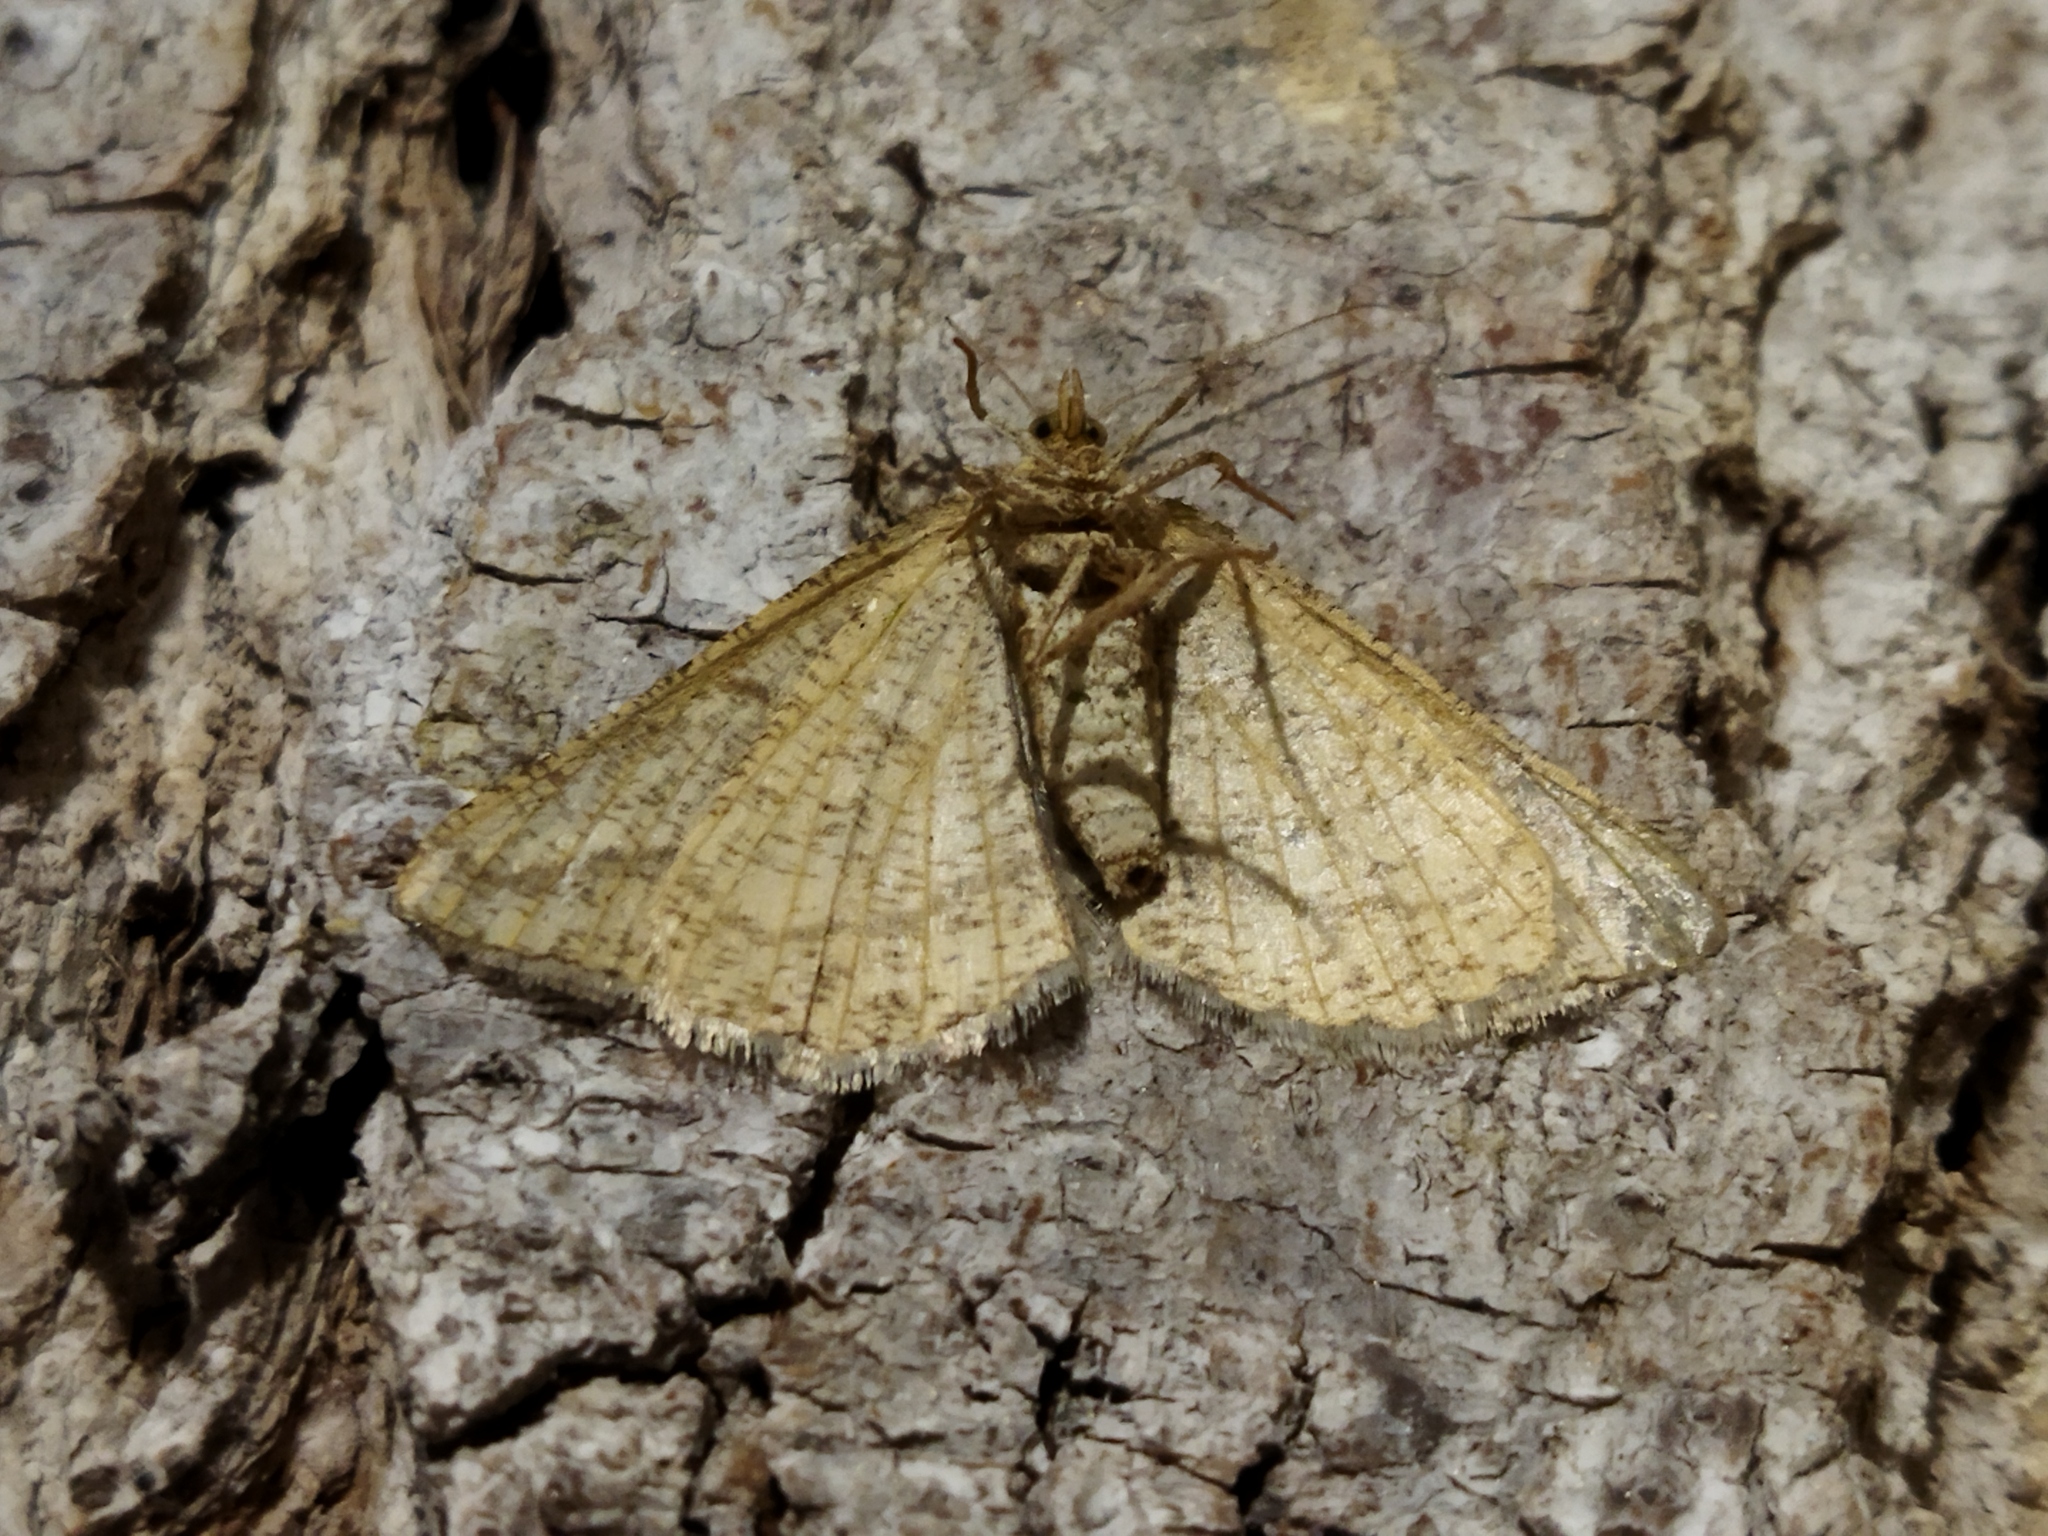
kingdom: Animalia
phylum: Arthropoda
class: Insecta
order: Lepidoptera
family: Geometridae
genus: Tephrina
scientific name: Tephrina arenacearia
